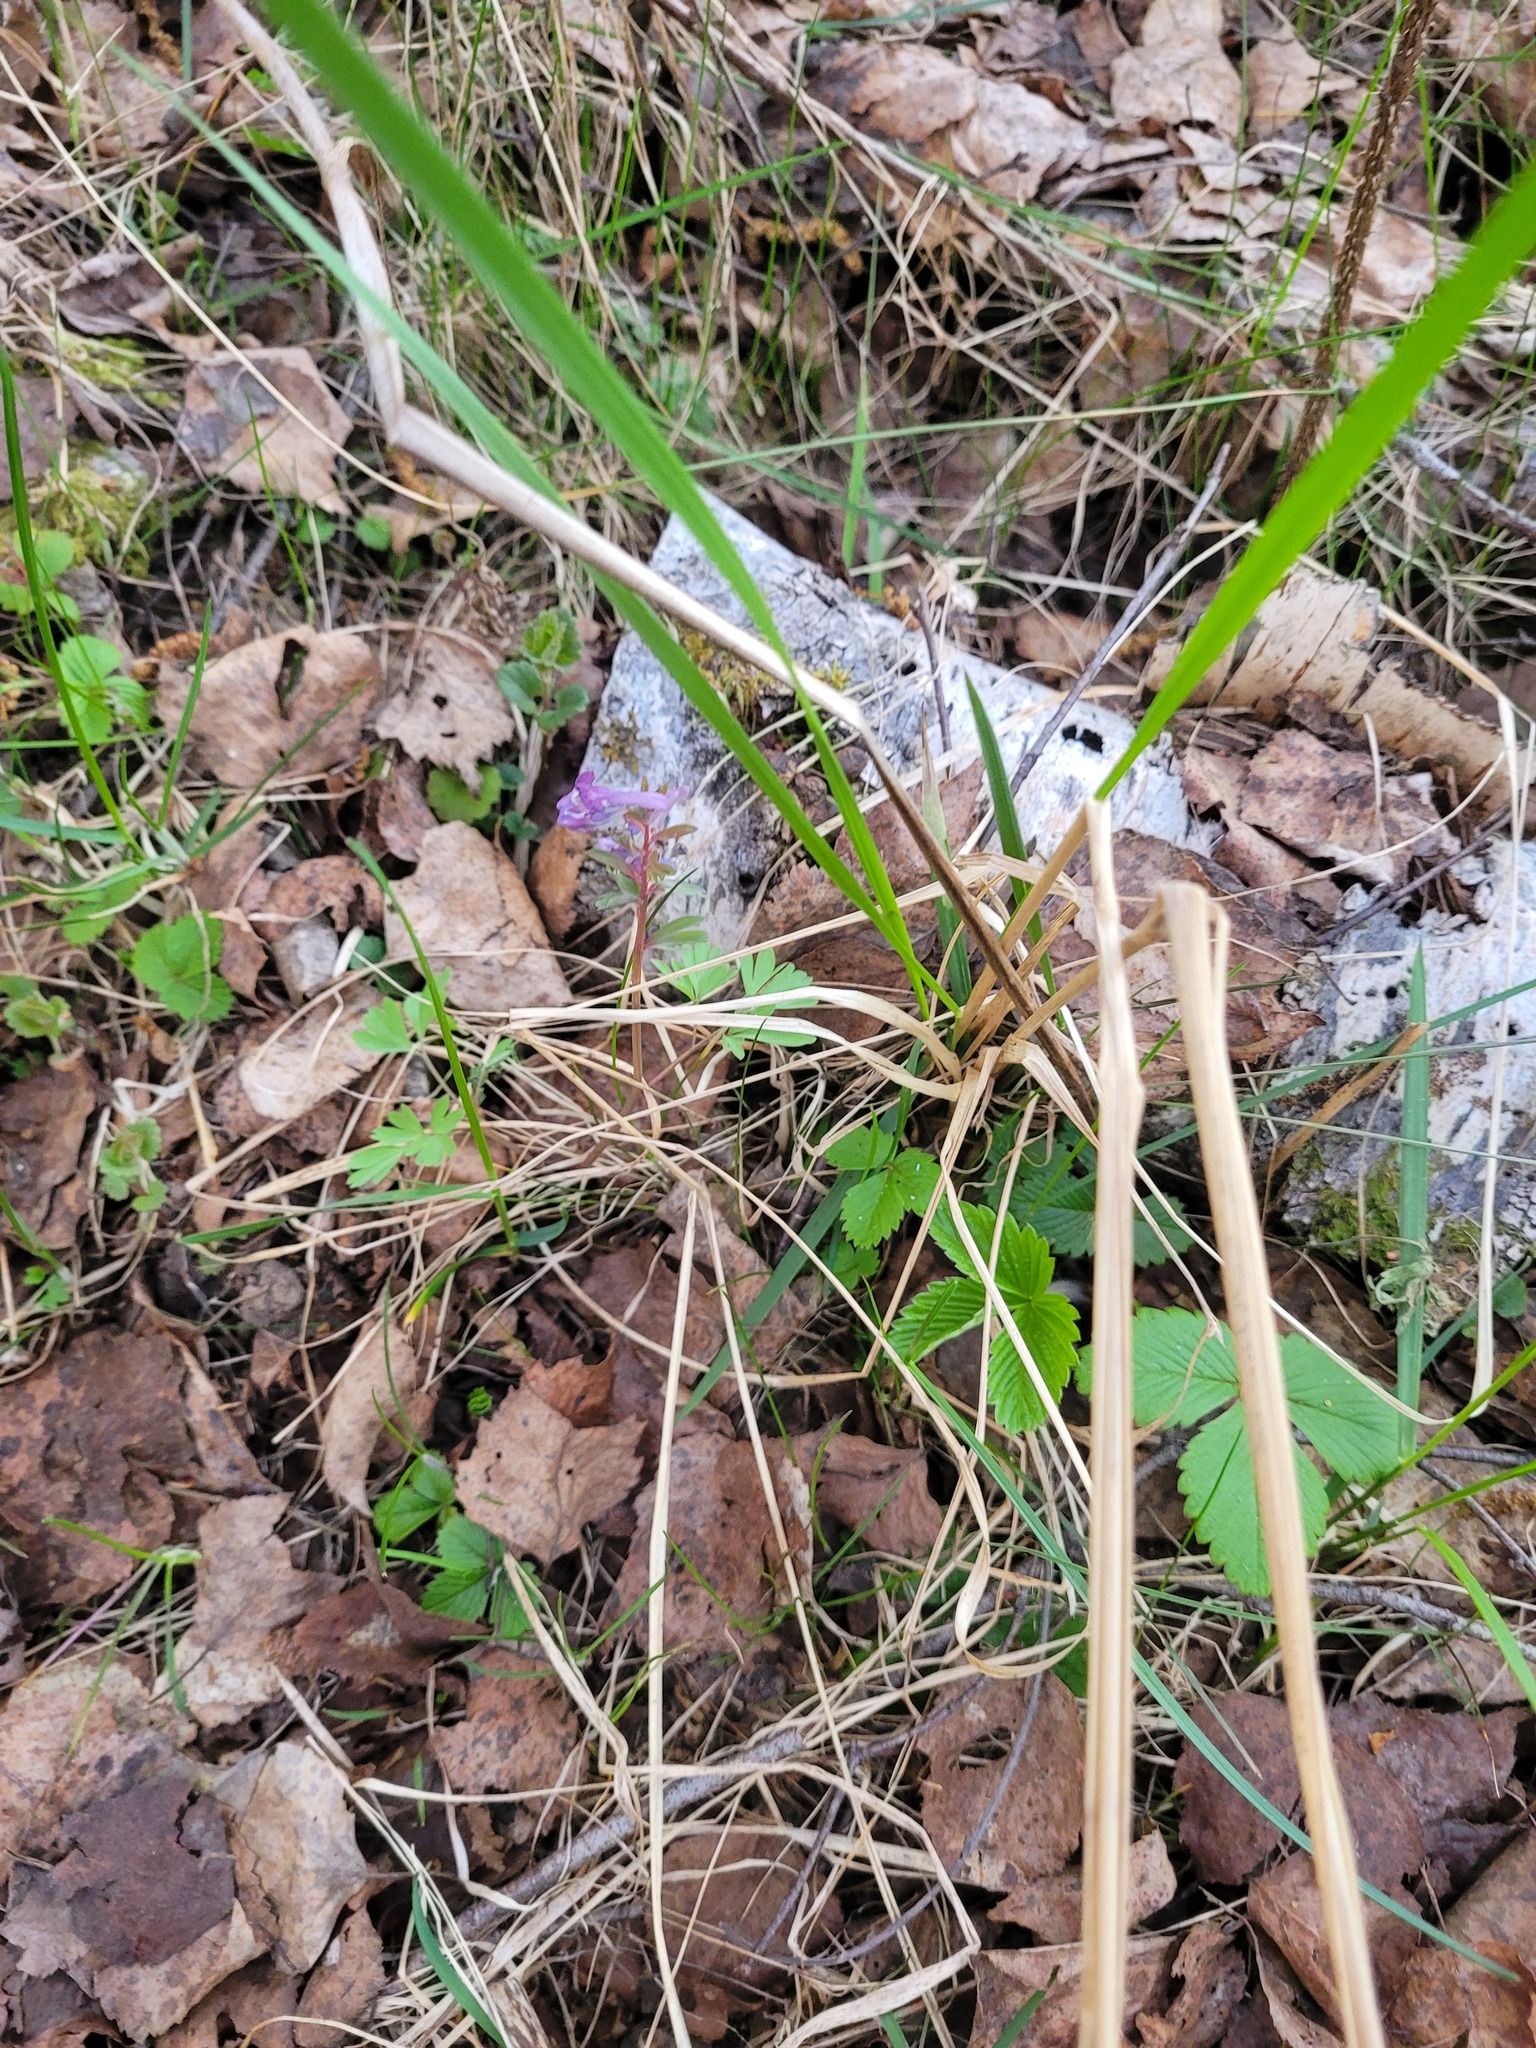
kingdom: Plantae
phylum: Tracheophyta
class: Magnoliopsida
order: Ranunculales
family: Papaveraceae
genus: Corydalis
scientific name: Corydalis solida
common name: Bird-in-a-bush
